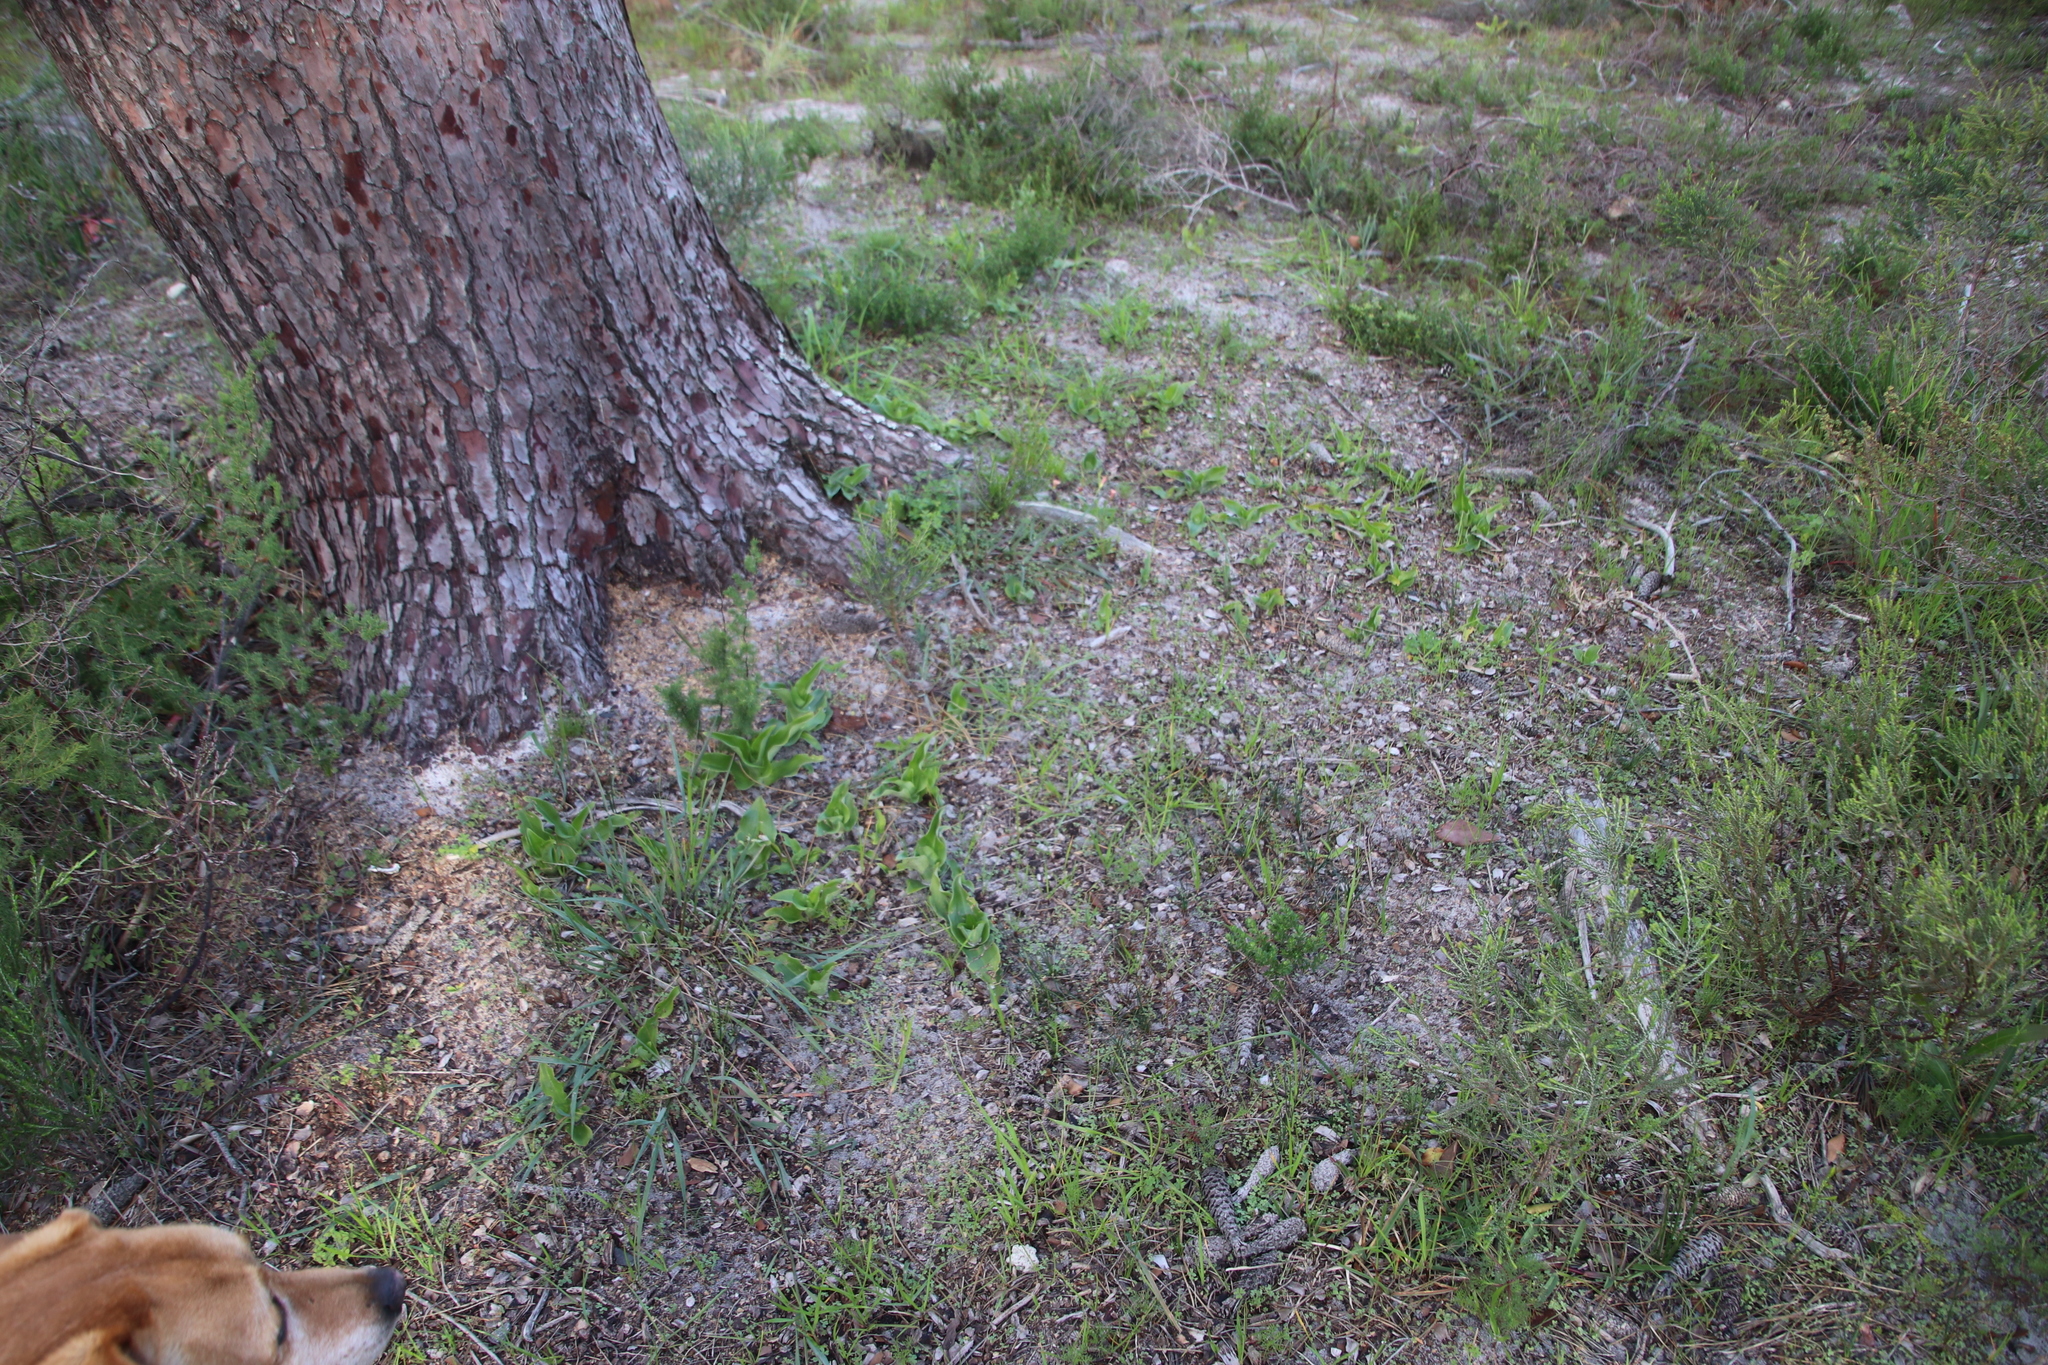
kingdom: Plantae
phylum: Tracheophyta
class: Liliopsida
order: Asparagales
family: Orchidaceae
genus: Satyrium
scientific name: Satyrium odorum
